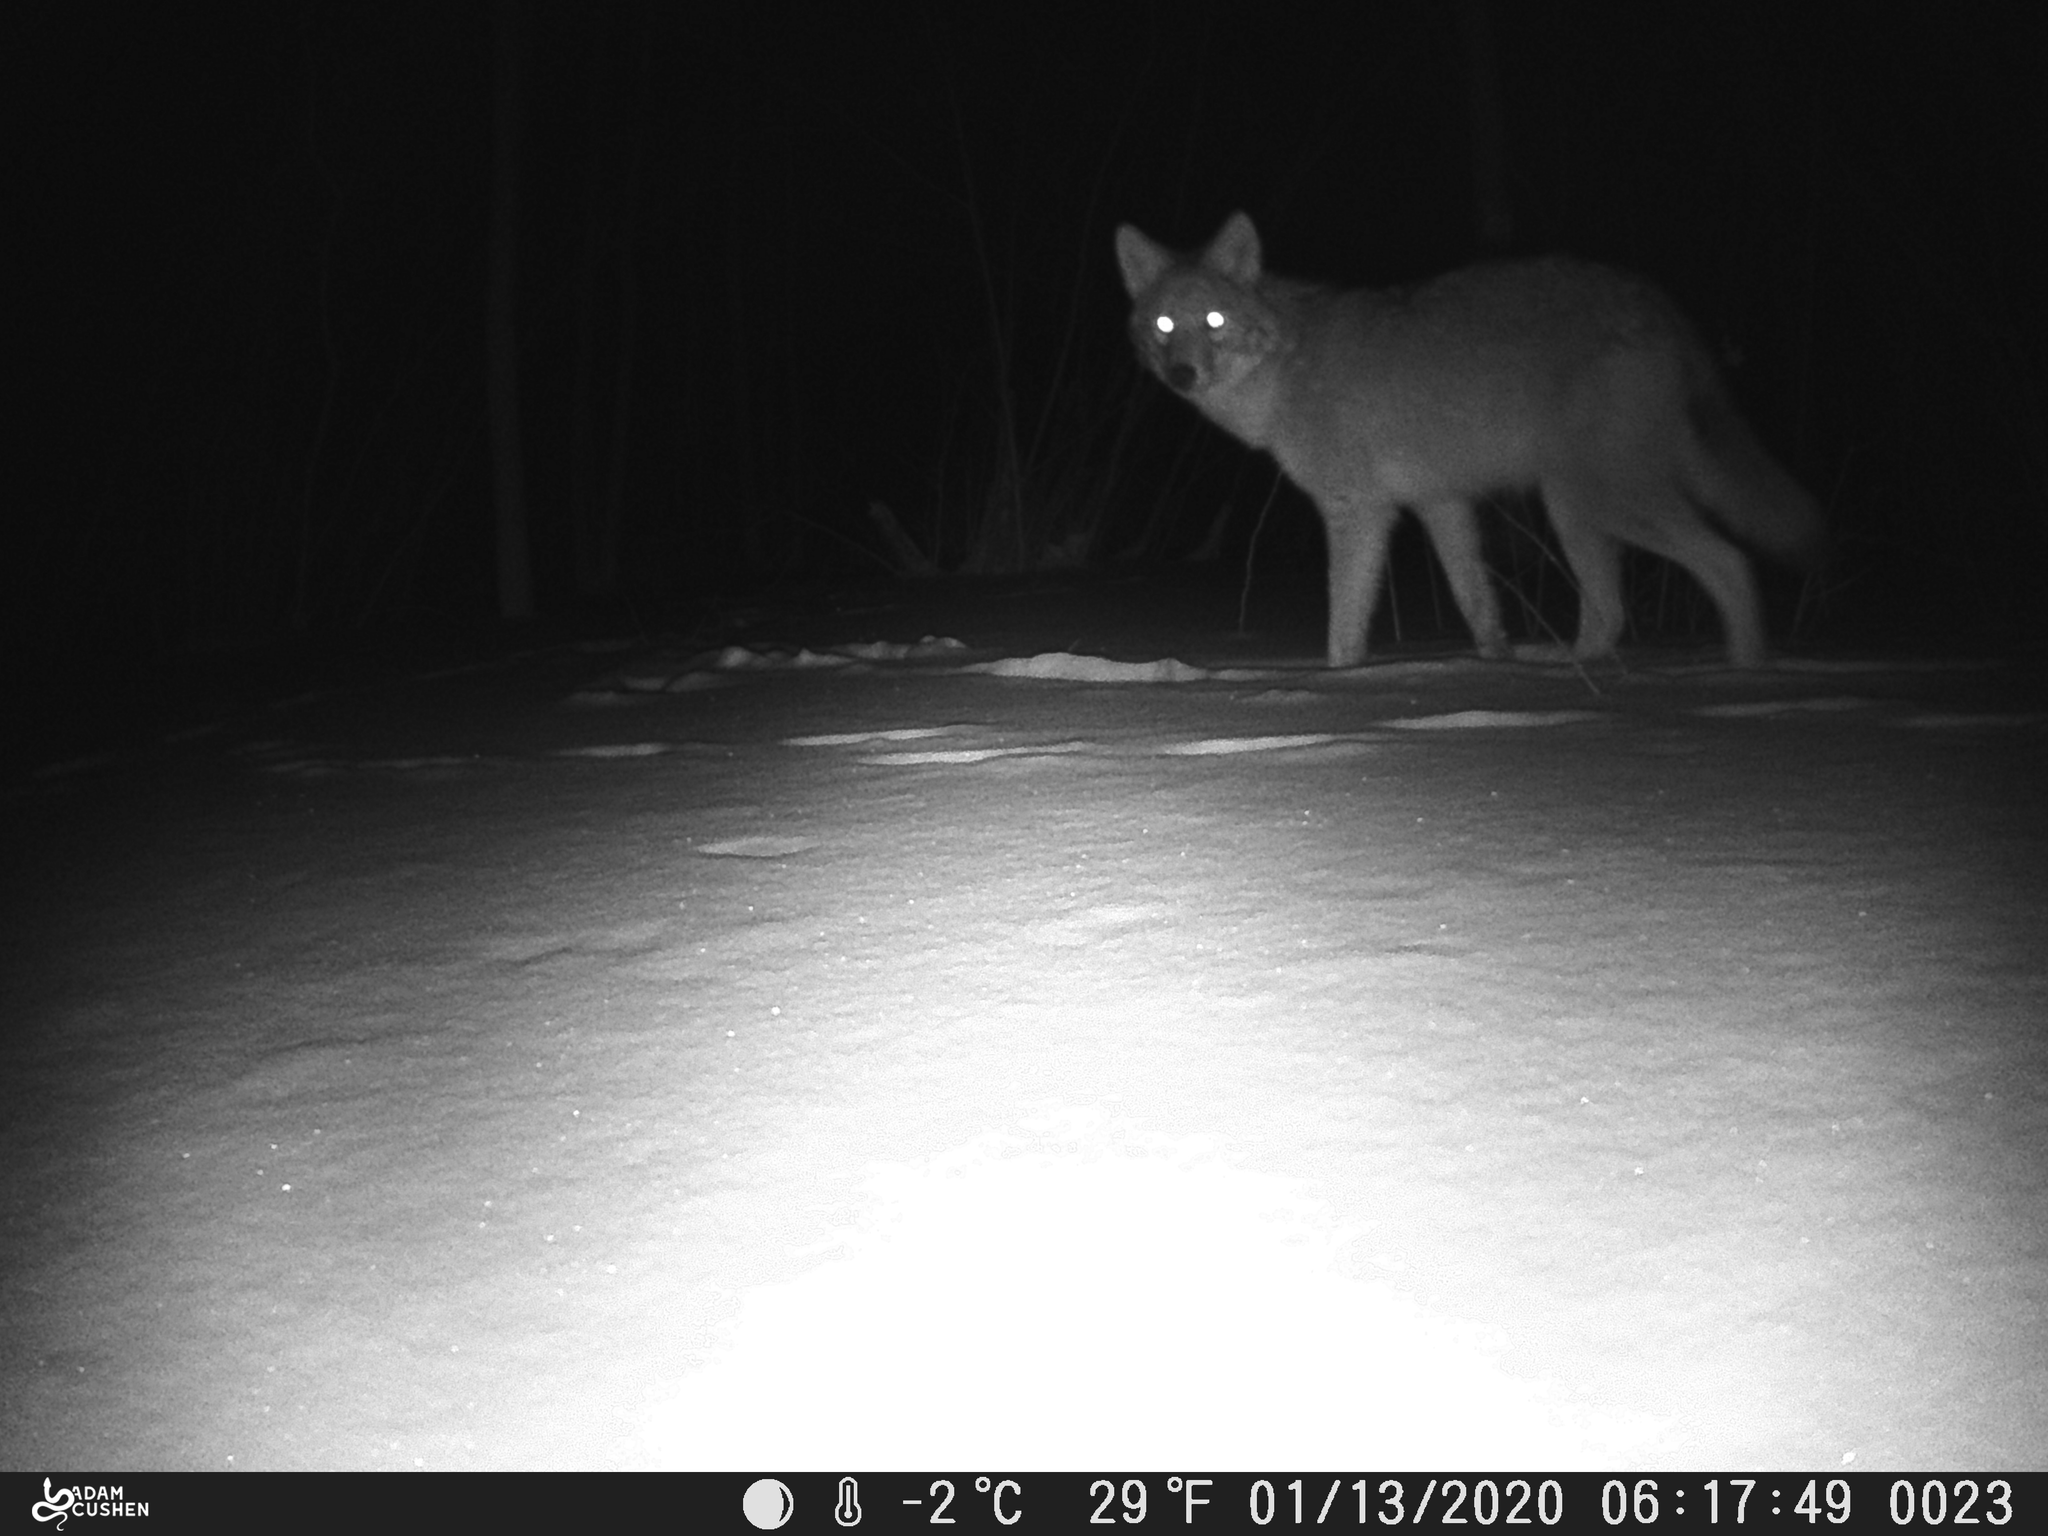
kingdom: Animalia
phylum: Chordata
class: Mammalia
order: Carnivora
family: Canidae
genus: Canis
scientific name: Canis latrans
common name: Coyote
